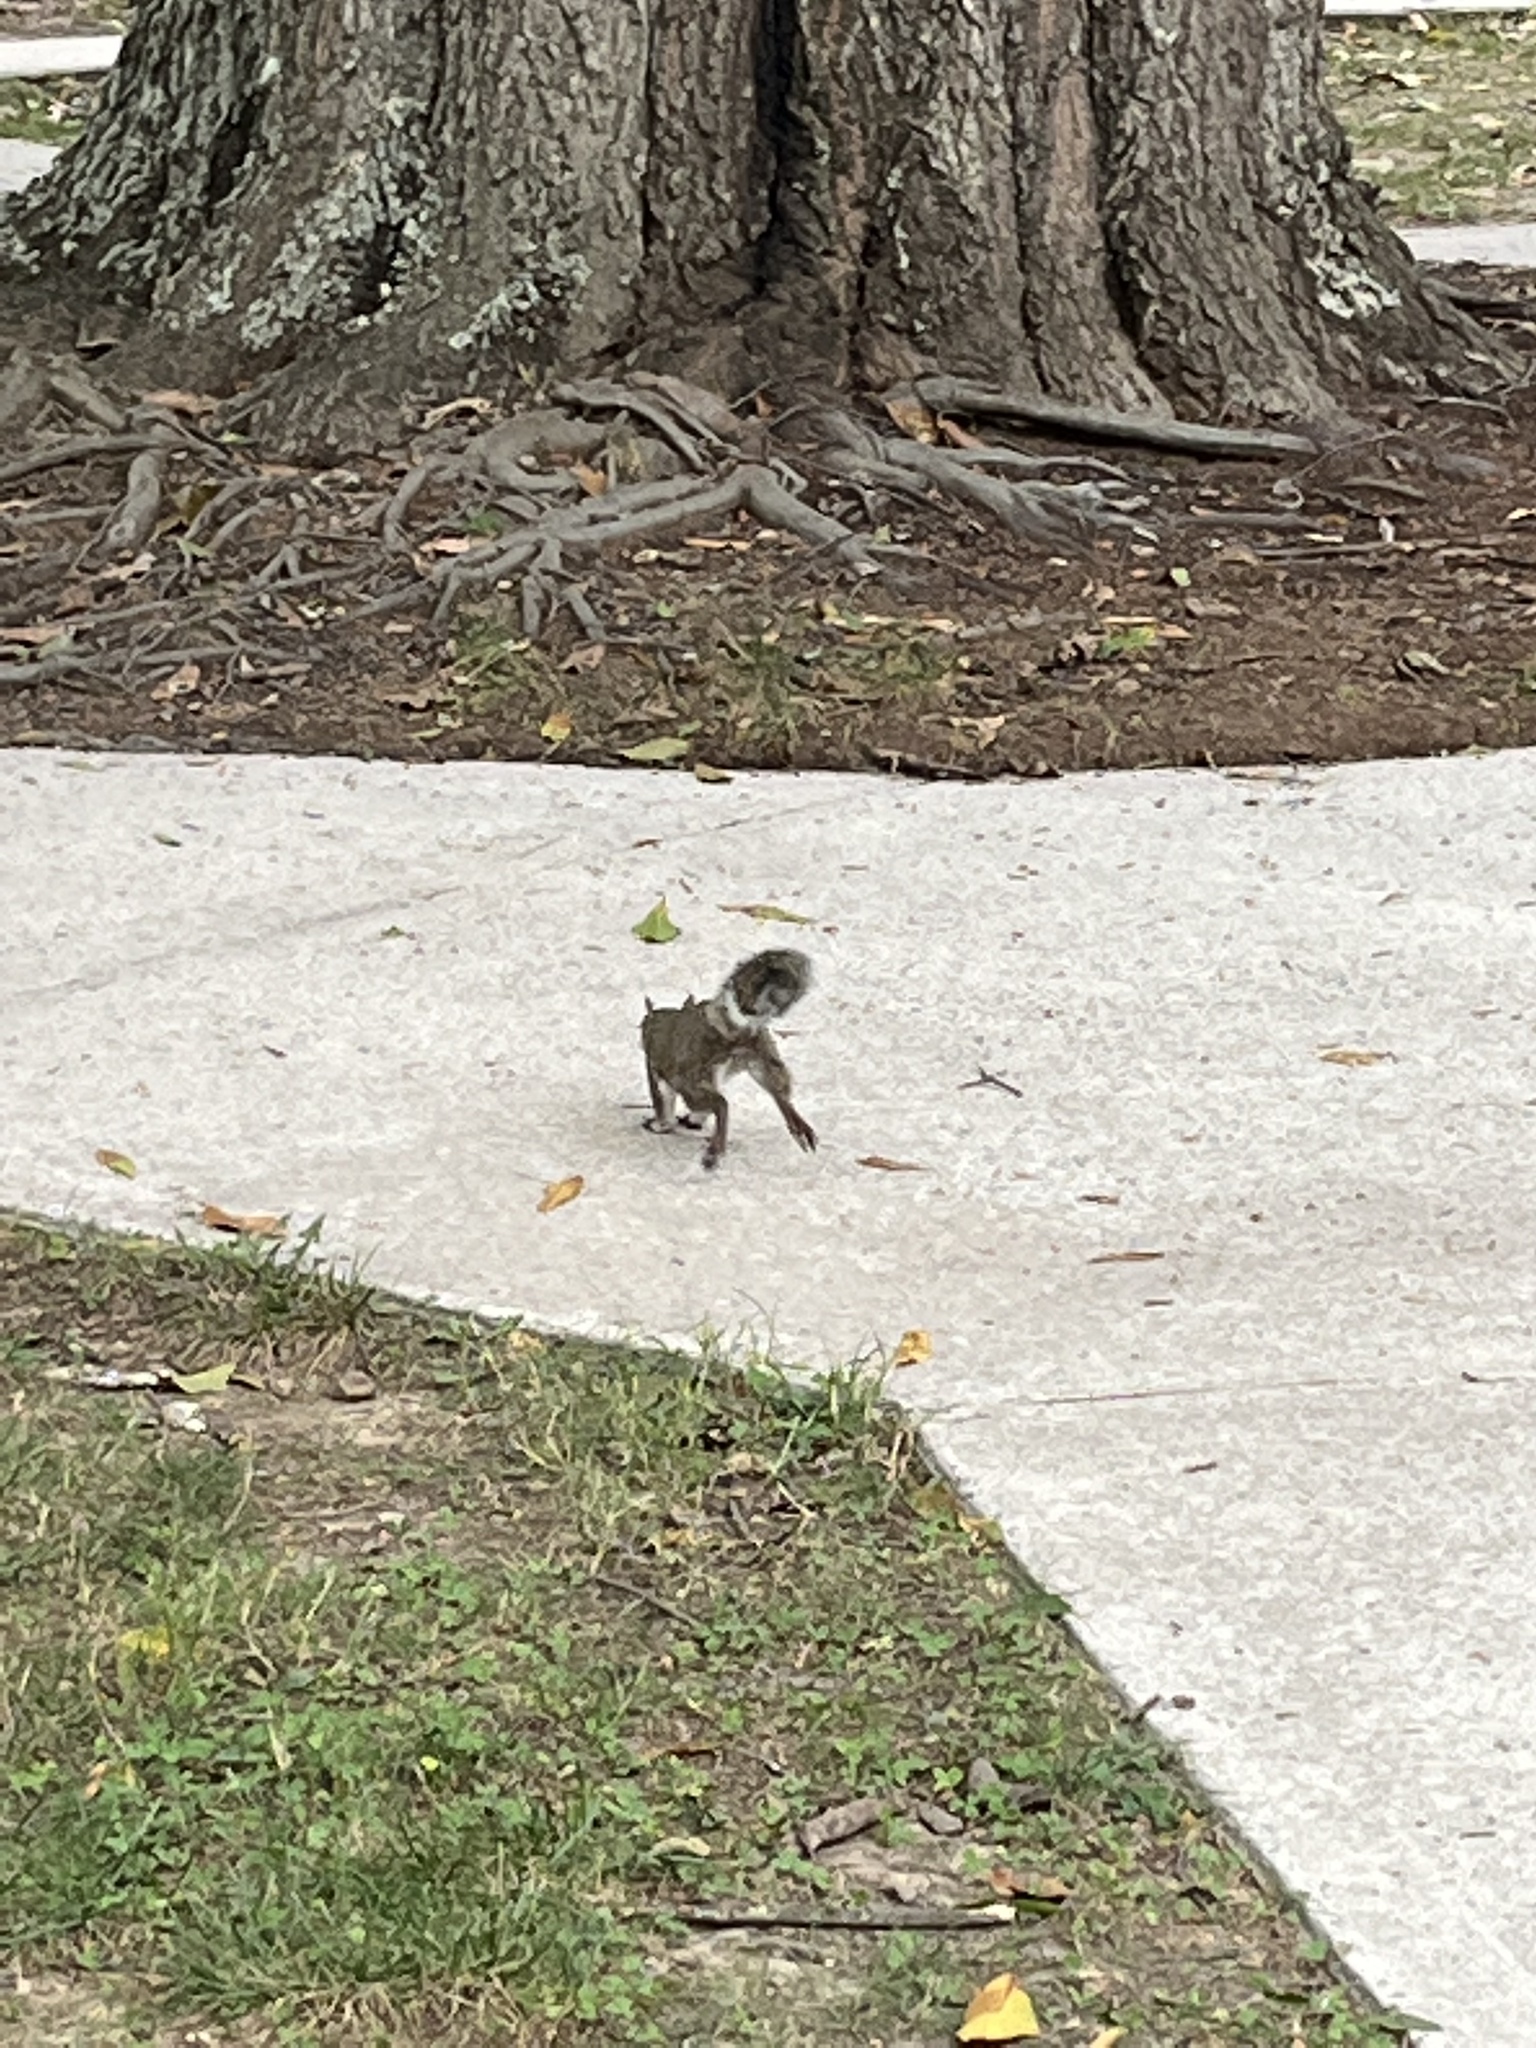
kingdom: Animalia
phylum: Chordata
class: Mammalia
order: Rodentia
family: Sciuridae
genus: Sciurus
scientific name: Sciurus carolinensis
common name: Eastern gray squirrel
